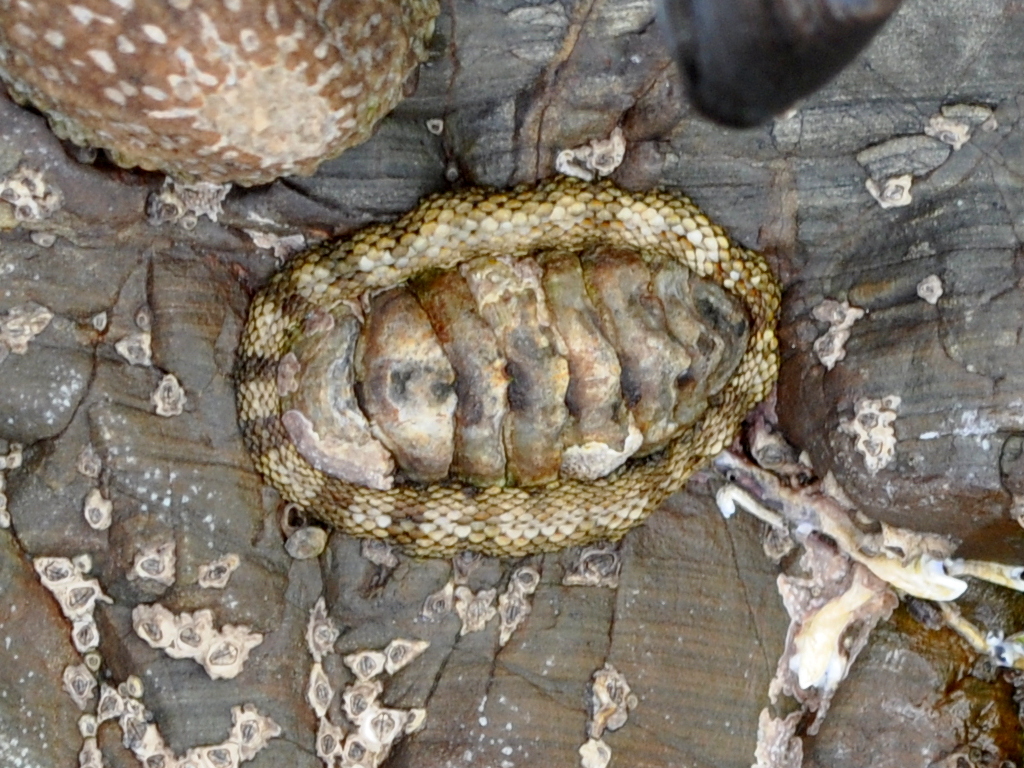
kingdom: Animalia
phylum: Mollusca
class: Polyplacophora
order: Chitonida
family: Chitonidae
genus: Sypharochiton
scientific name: Sypharochiton pelliserpentis
